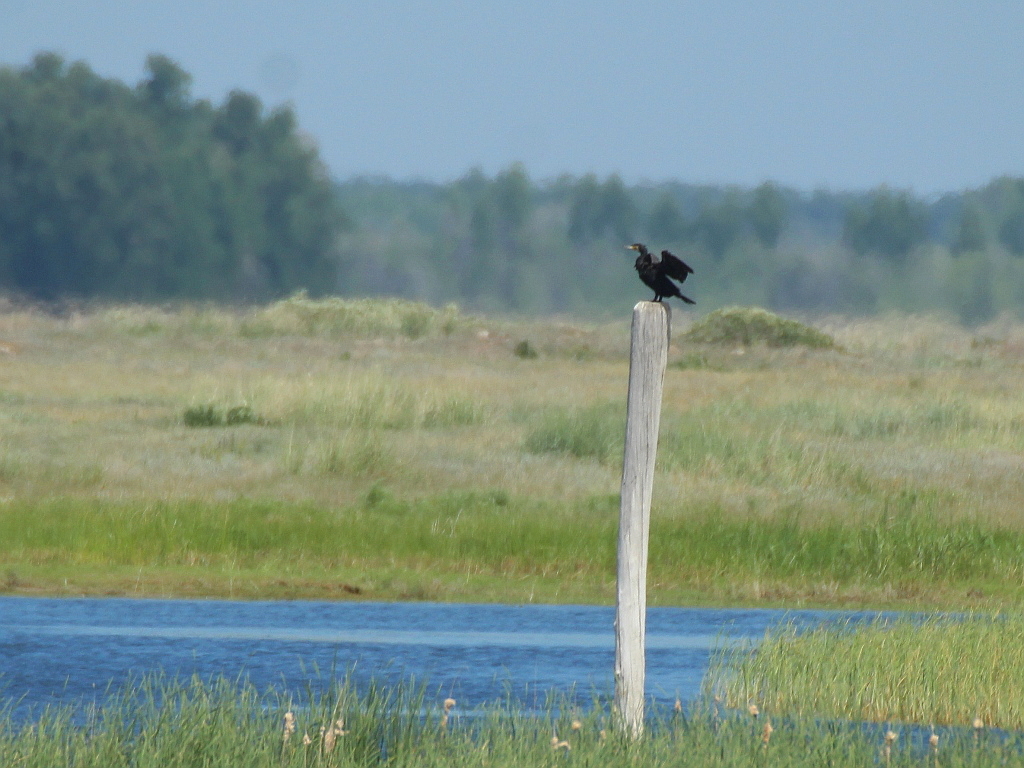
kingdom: Animalia
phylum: Chordata
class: Aves
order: Suliformes
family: Phalacrocoracidae
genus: Phalacrocorax
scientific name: Phalacrocorax carbo
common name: Great cormorant
